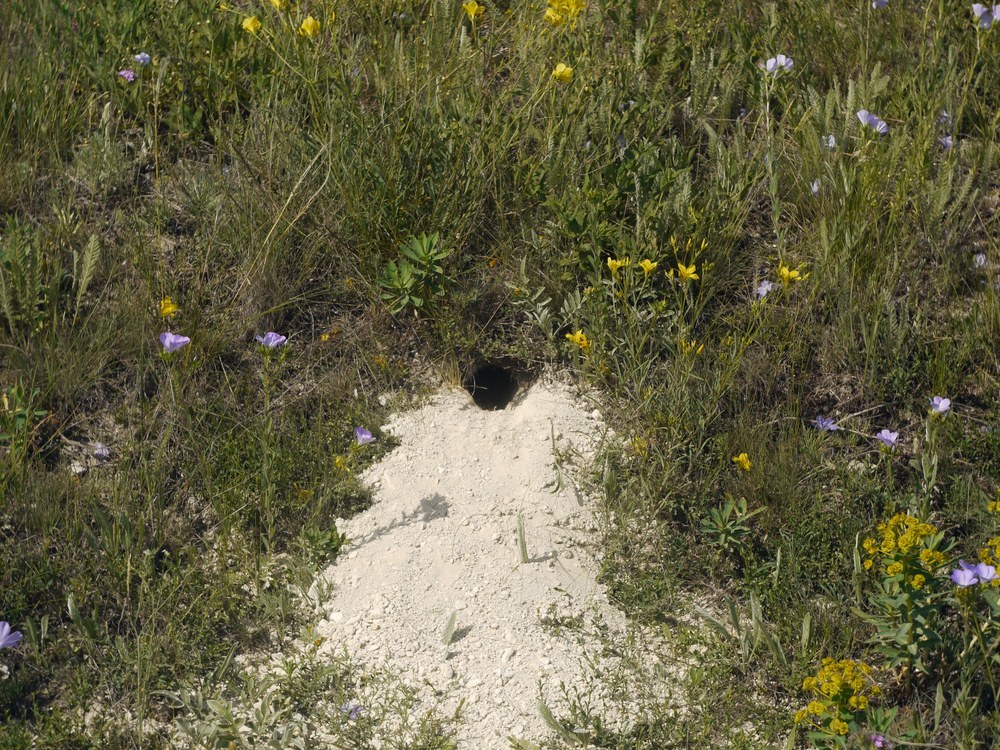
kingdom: Animalia
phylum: Chordata
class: Aves
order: Coraciiformes
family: Meropidae
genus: Merops
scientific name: Merops apiaster
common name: European bee-eater
